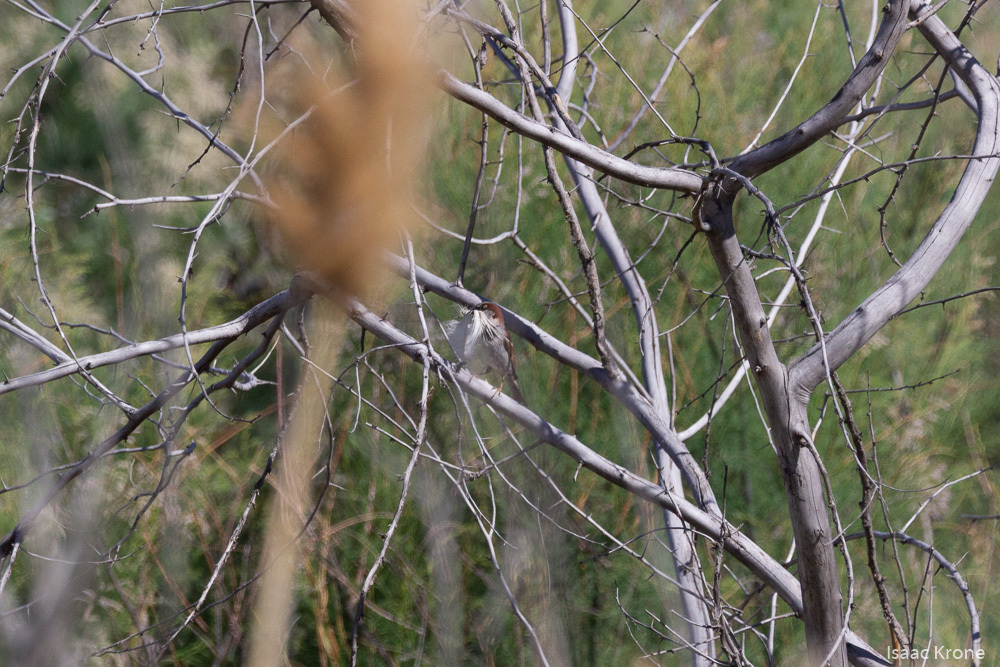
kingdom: Animalia
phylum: Chordata
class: Aves
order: Passeriformes
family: Passeridae
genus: Passer
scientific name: Passer domesticus
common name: House sparrow
